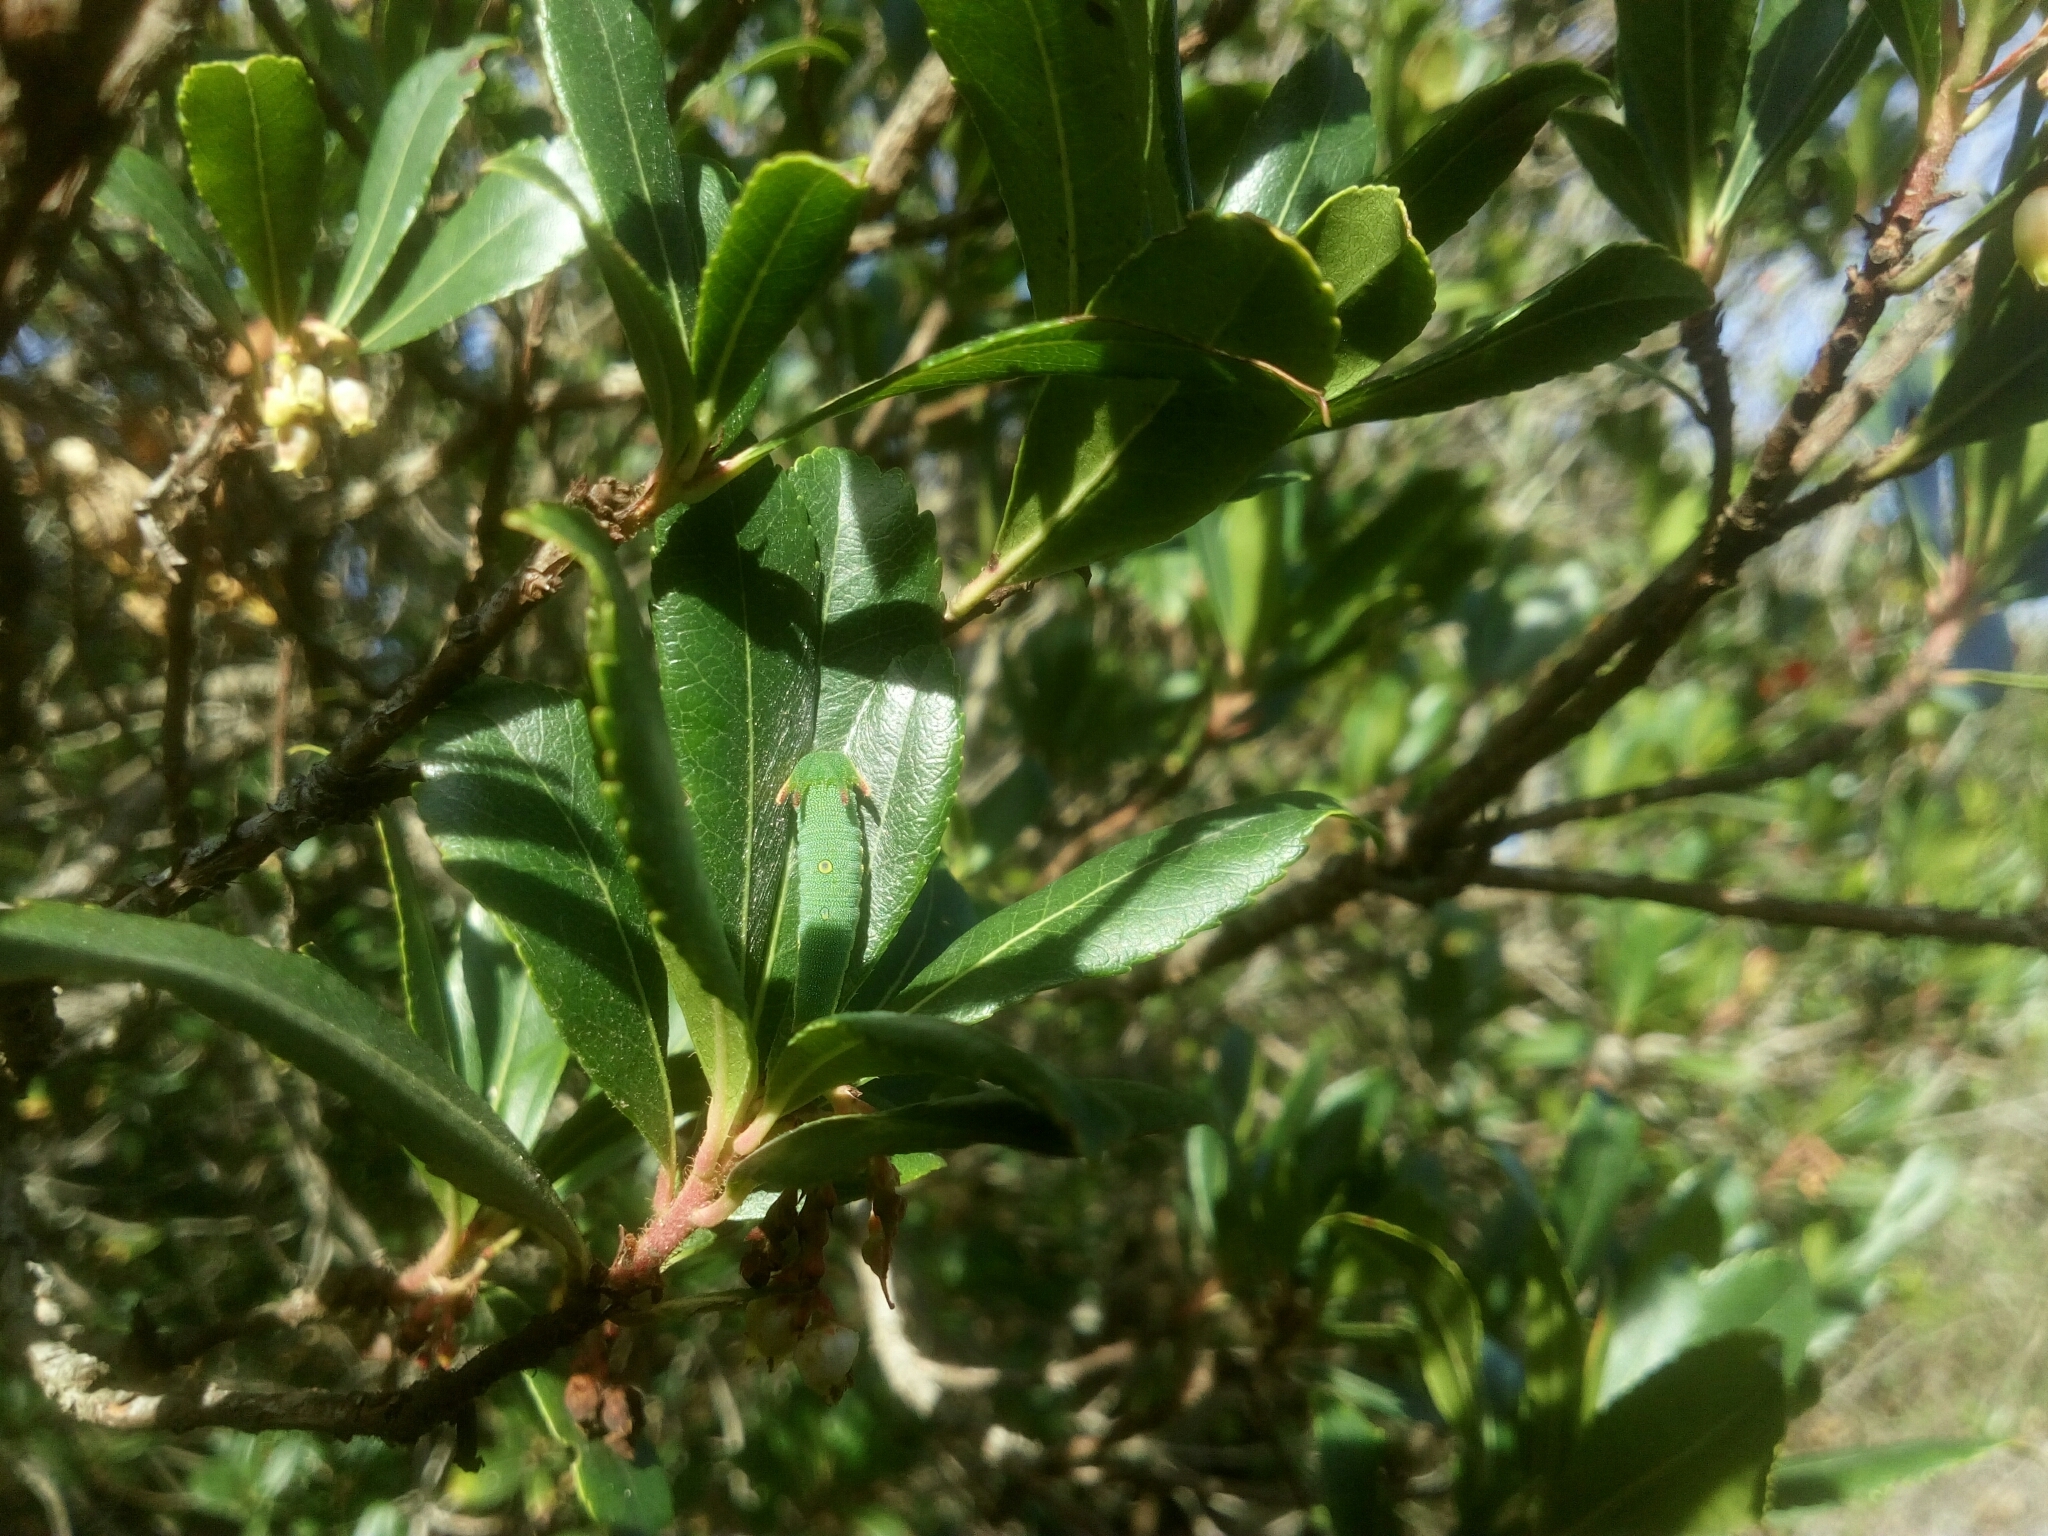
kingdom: Animalia
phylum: Arthropoda
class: Insecta
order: Lepidoptera
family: Nymphalidae
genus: Charaxes
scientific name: Charaxes jasius
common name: Two tailed pasha
